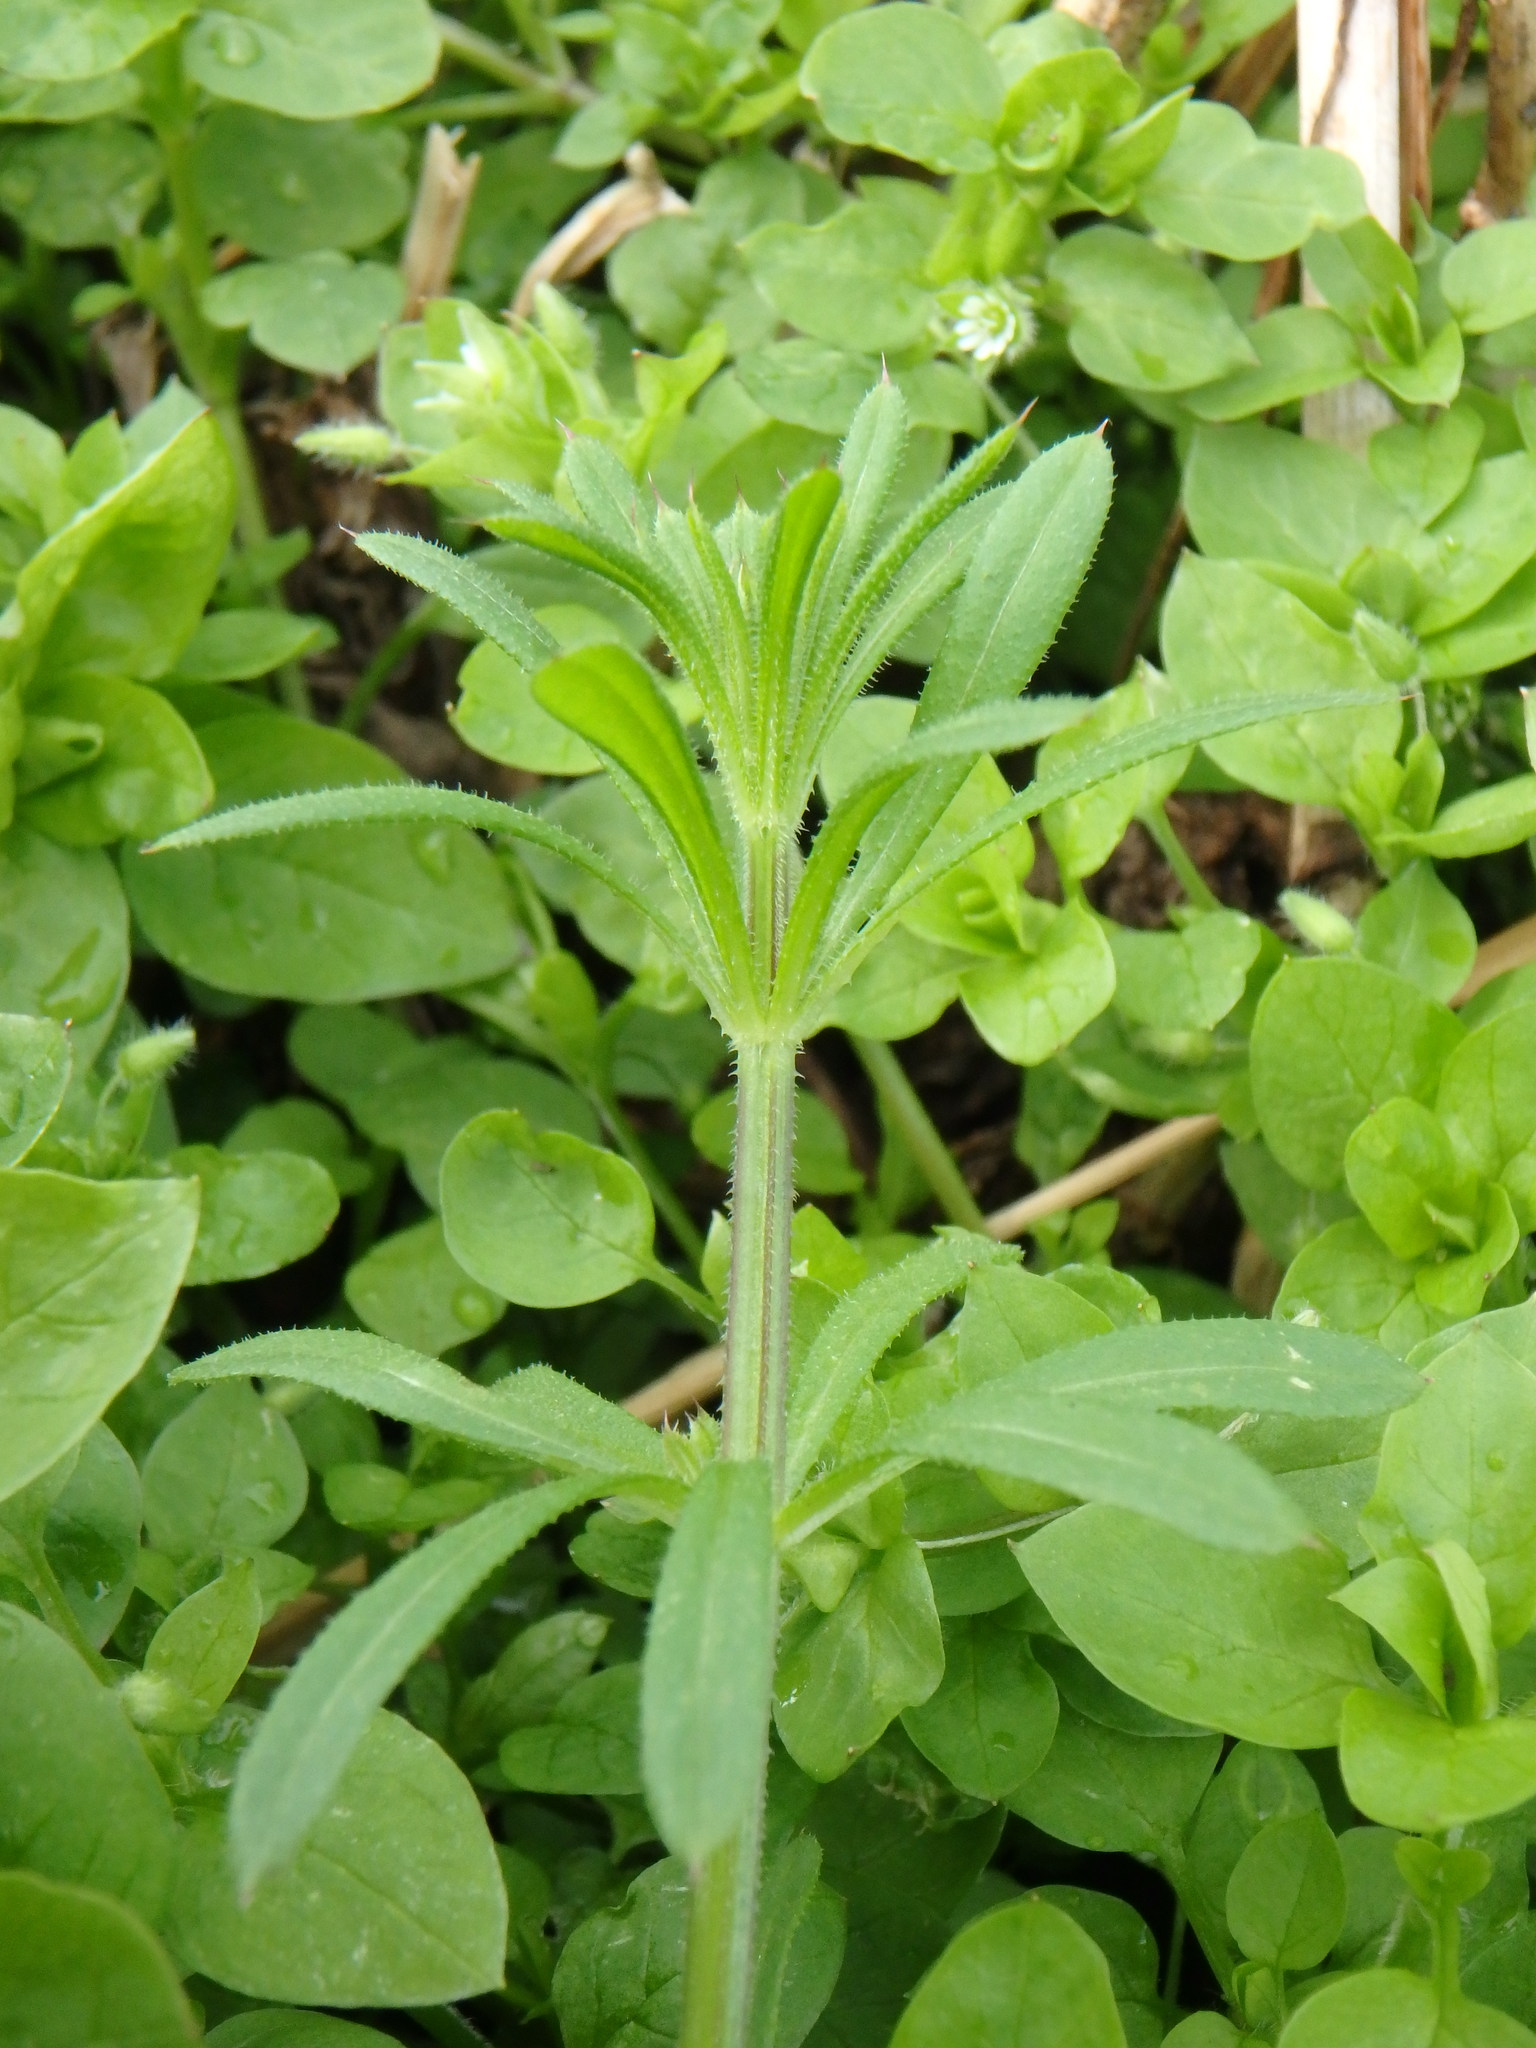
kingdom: Plantae
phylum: Tracheophyta
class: Magnoliopsida
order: Gentianales
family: Rubiaceae
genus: Galium
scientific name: Galium aparine
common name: Cleavers
